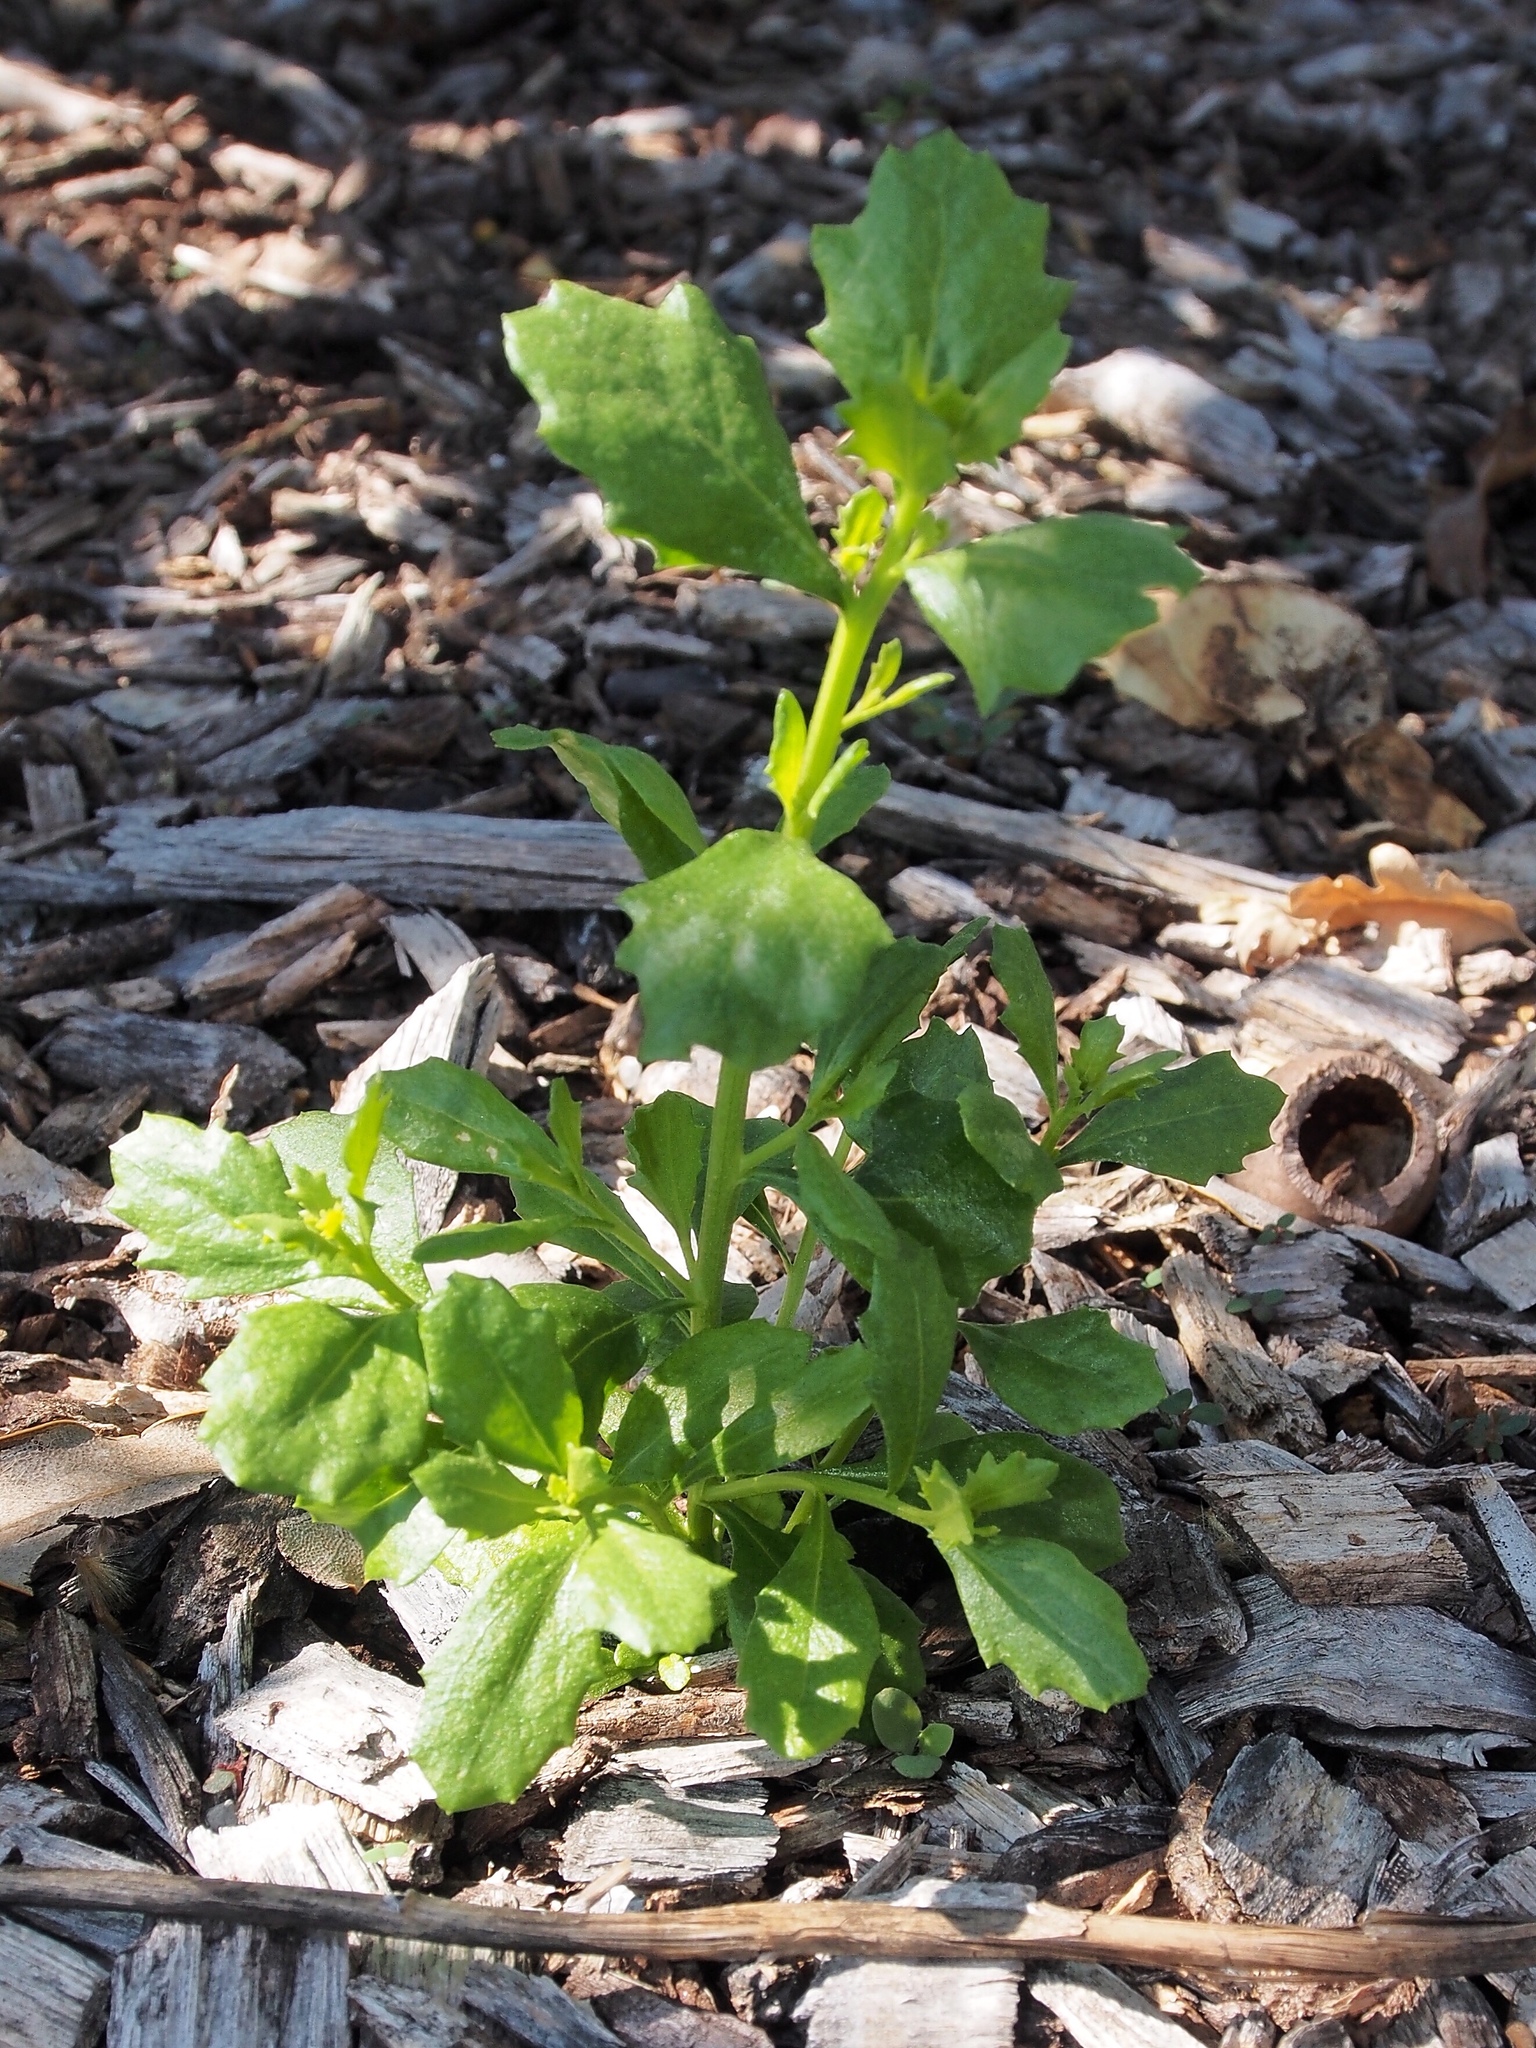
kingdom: Plantae
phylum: Tracheophyta
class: Magnoliopsida
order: Asterales
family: Asteraceae
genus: Baccharis
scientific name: Baccharis pilularis
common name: Coyotebrush
